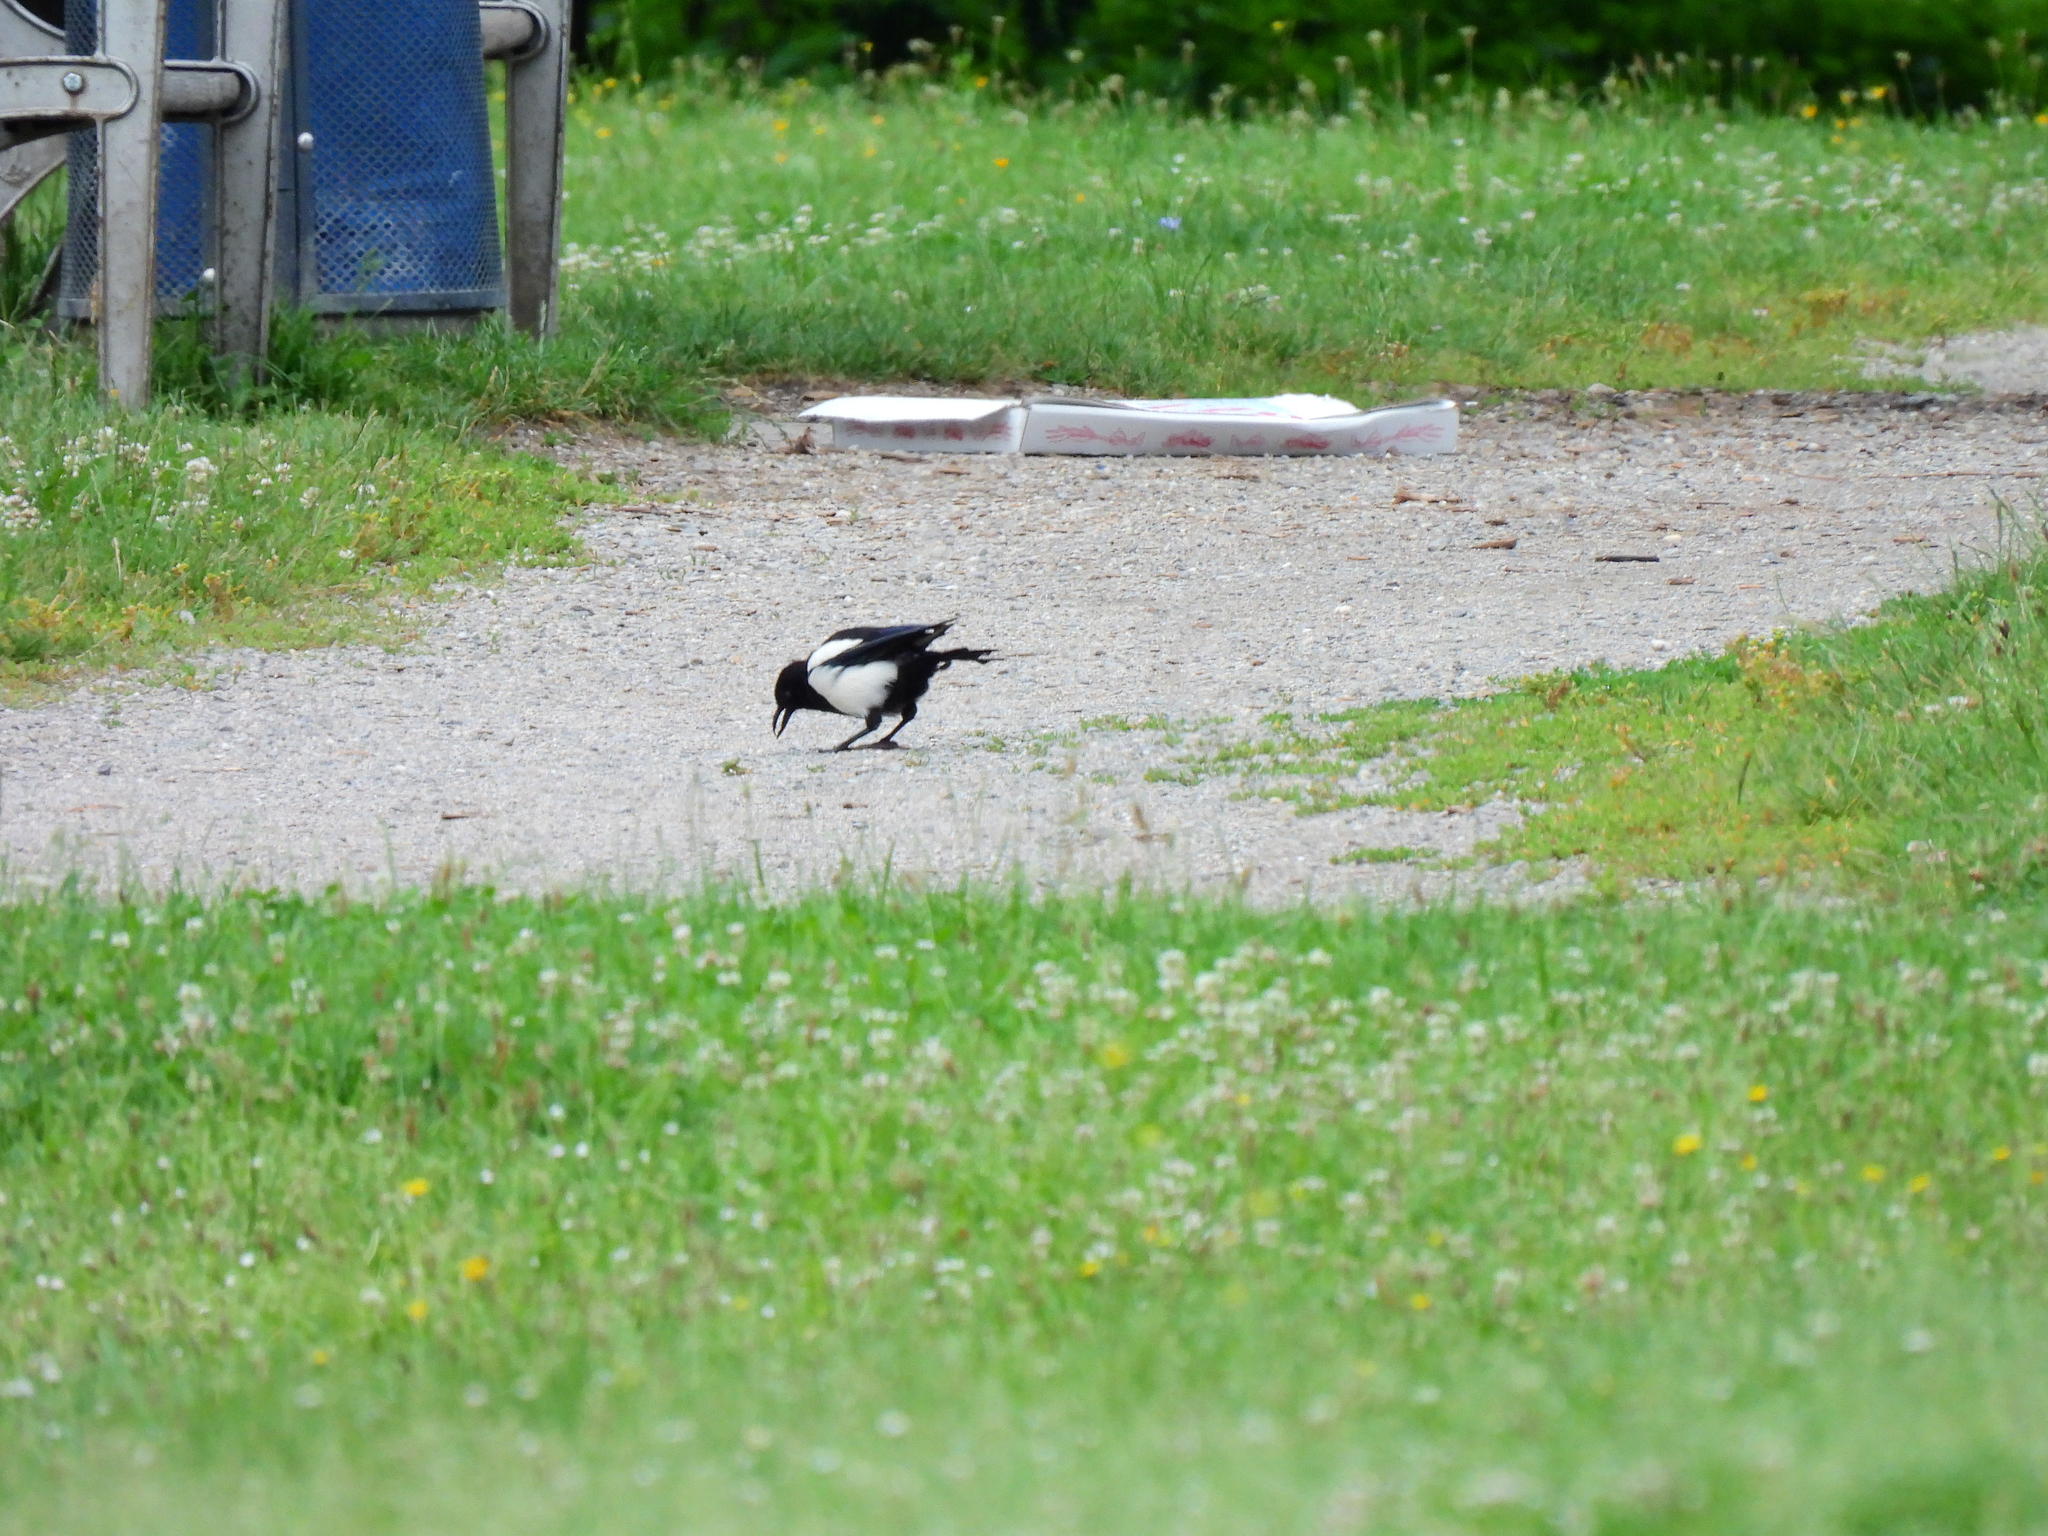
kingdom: Animalia
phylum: Chordata
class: Aves
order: Passeriformes
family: Corvidae
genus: Pica
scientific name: Pica pica
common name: Eurasian magpie
